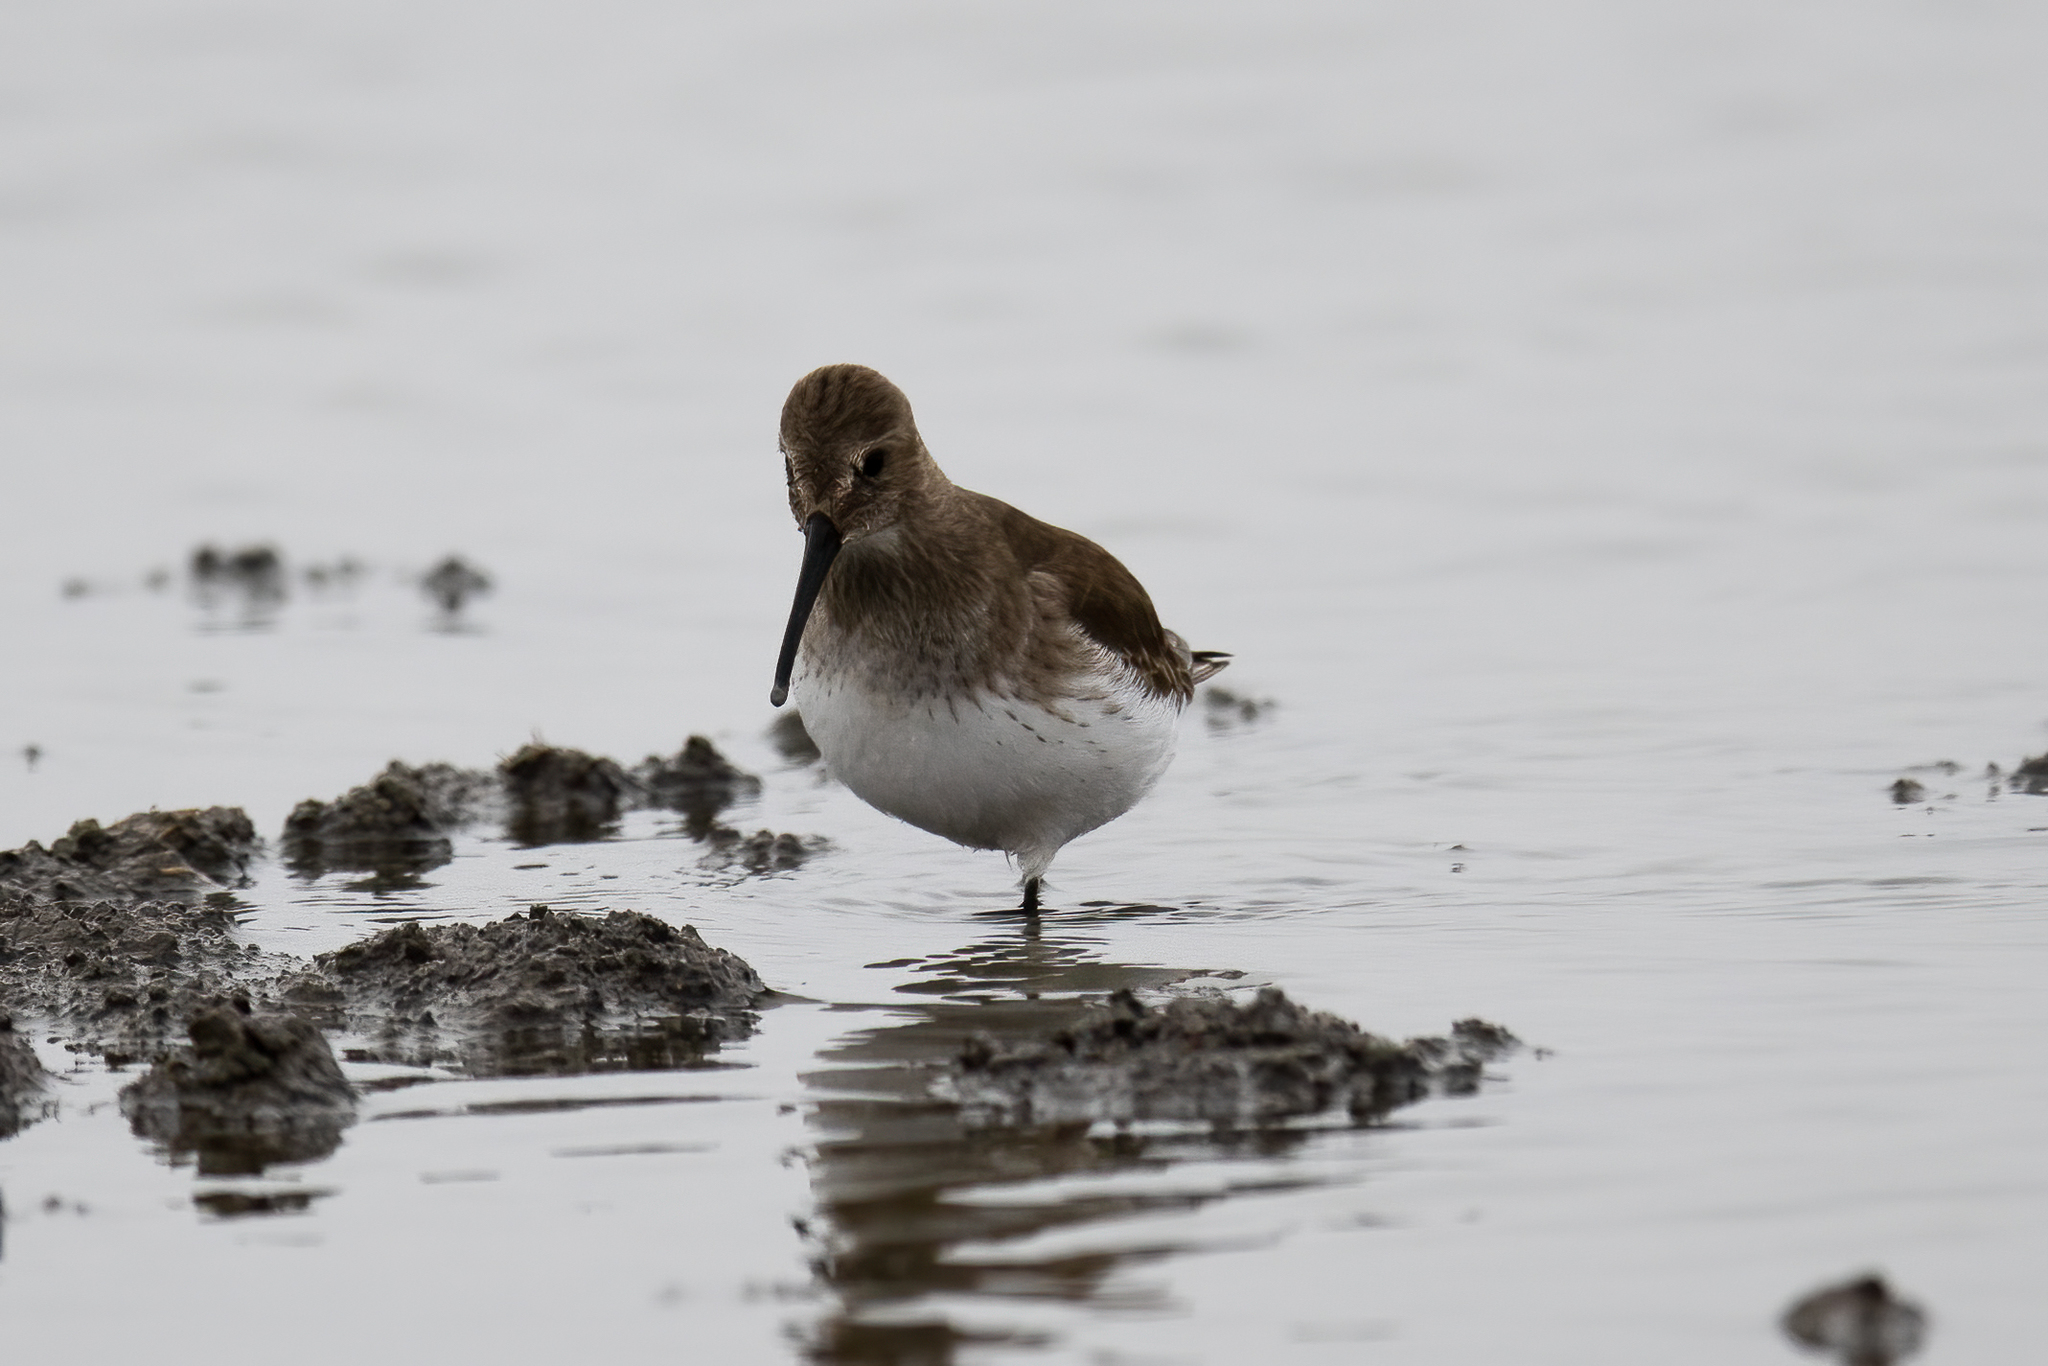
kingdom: Animalia
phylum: Chordata
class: Aves
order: Charadriiformes
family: Scolopacidae
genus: Calidris
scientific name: Calidris alpina
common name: Dunlin
